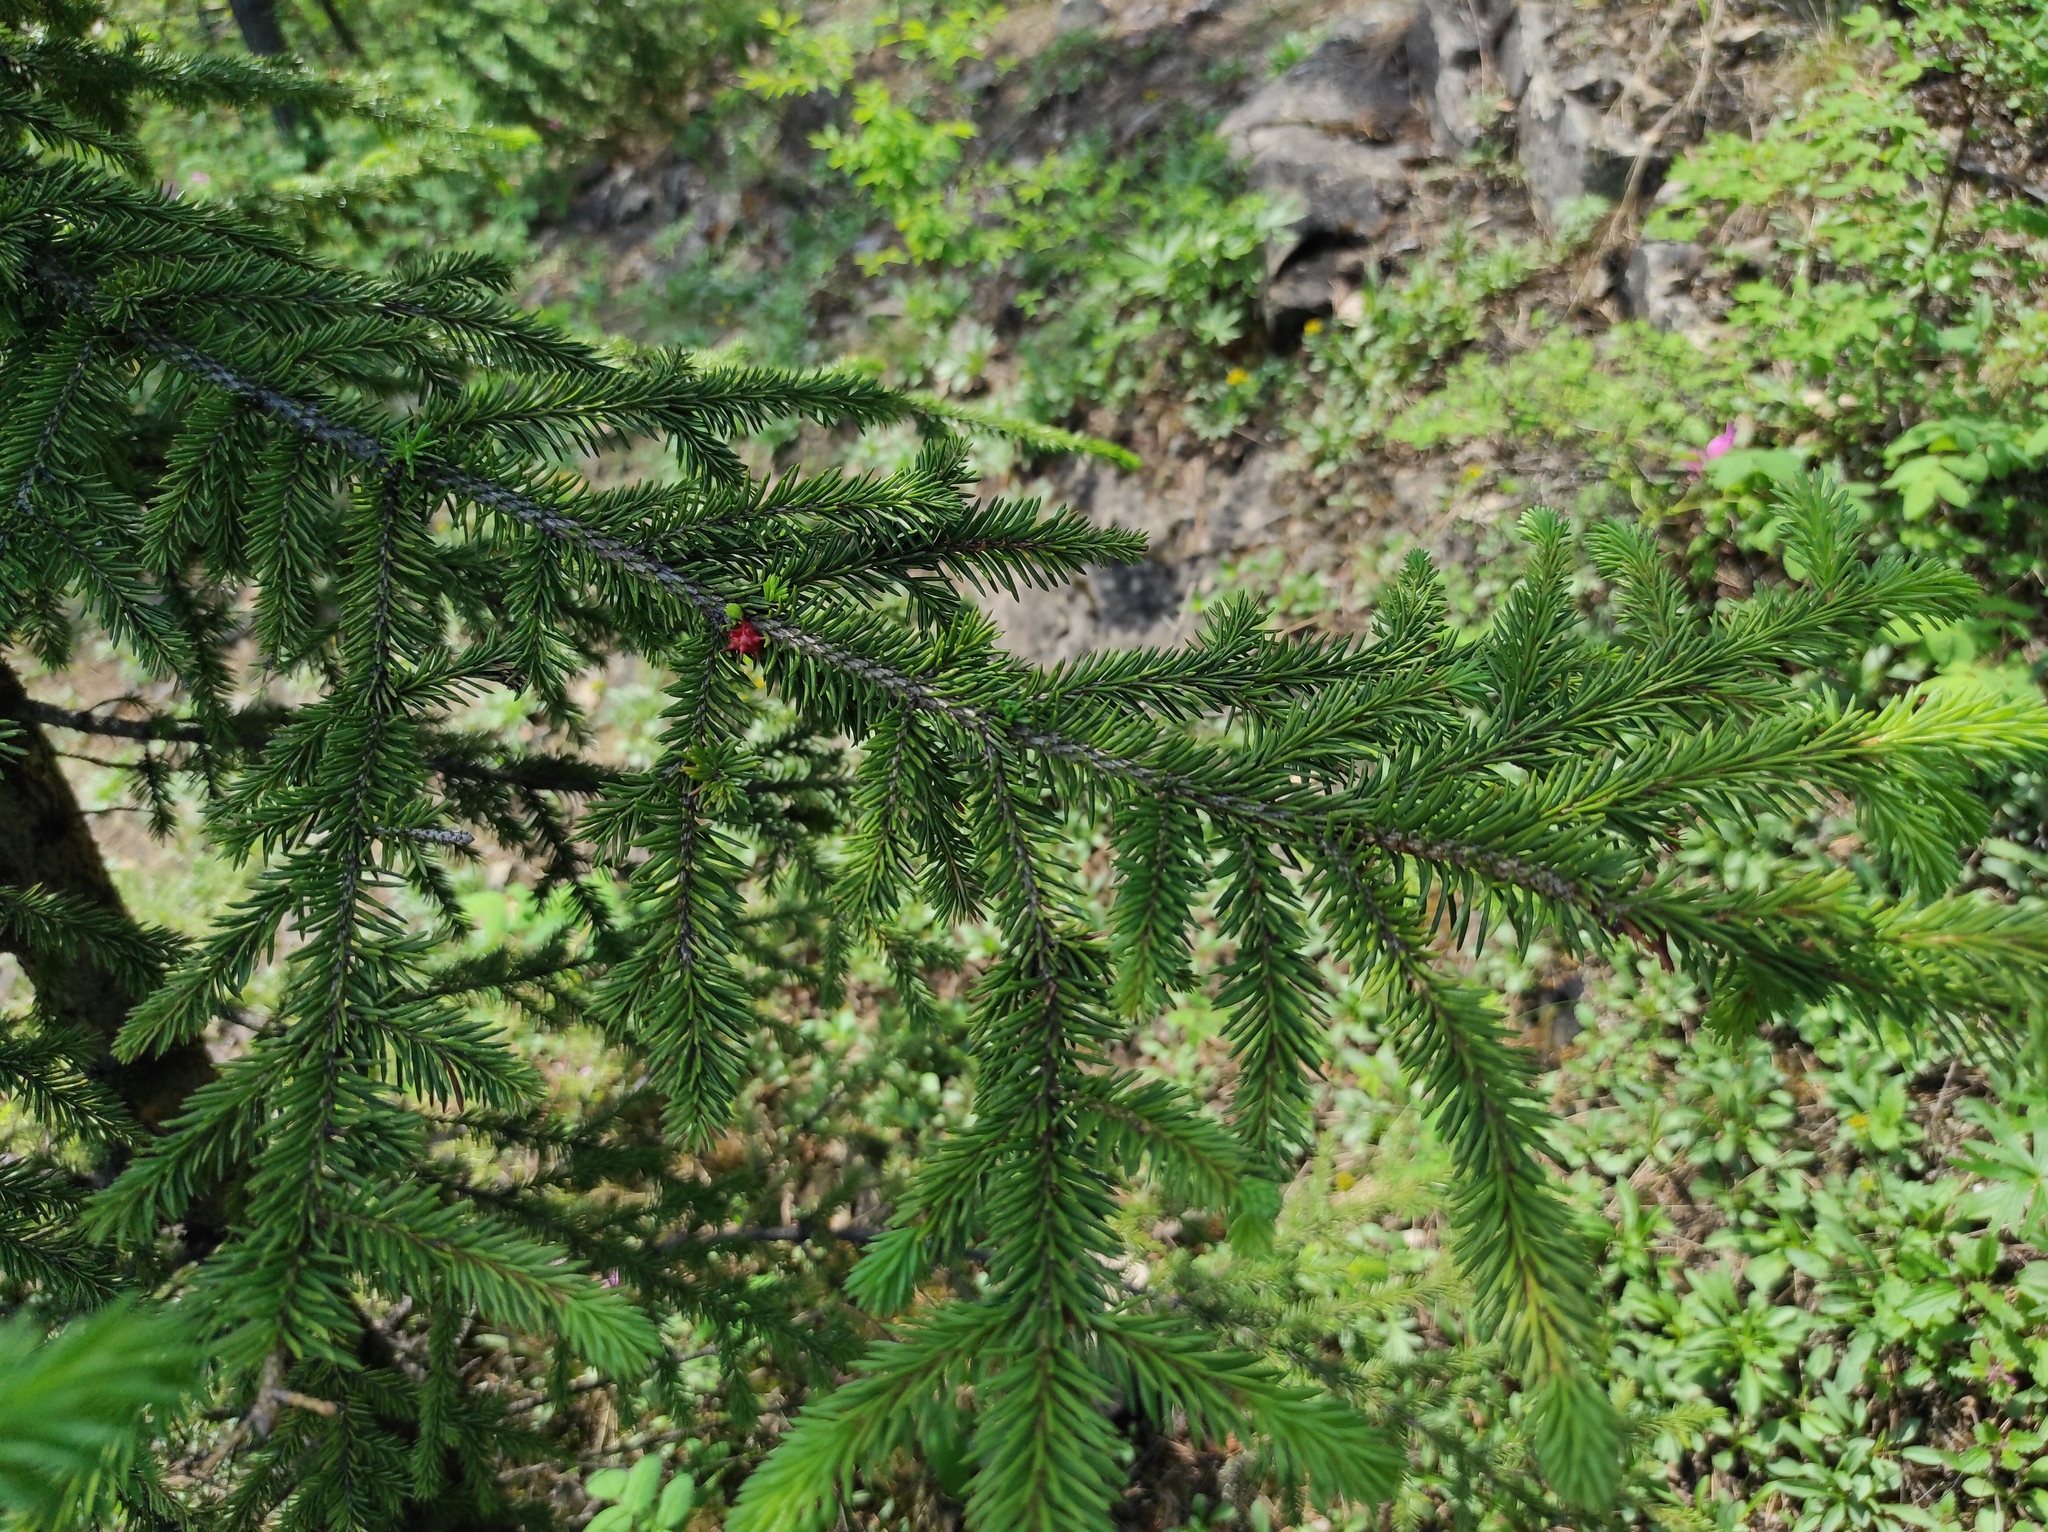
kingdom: Plantae
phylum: Tracheophyta
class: Pinopsida
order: Pinales
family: Pinaceae
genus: Picea
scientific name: Picea obovata
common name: Siberian spruce
